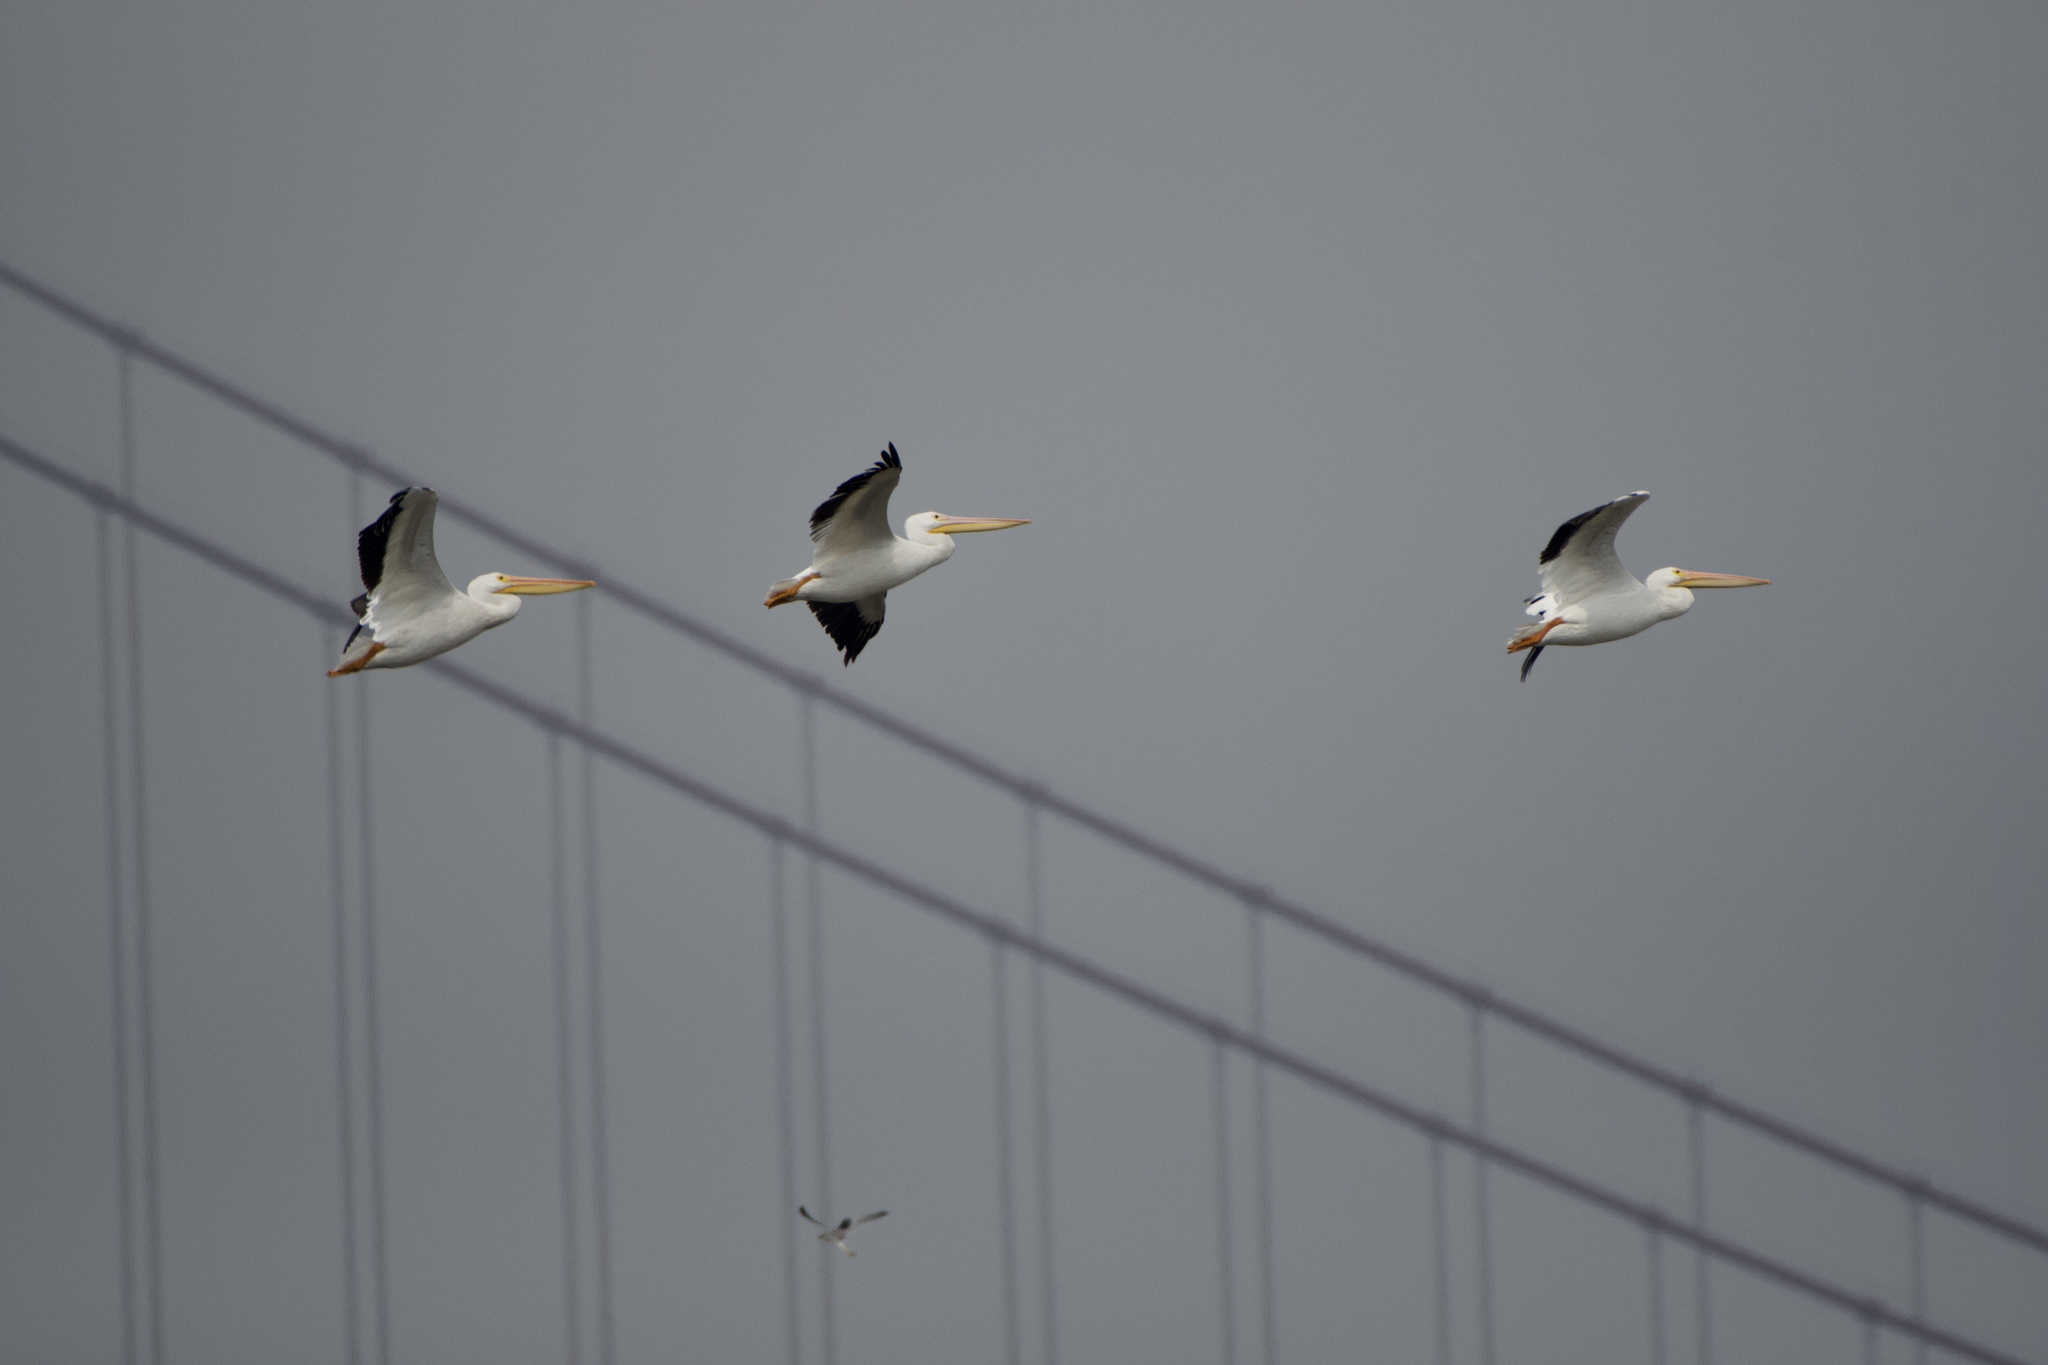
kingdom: Animalia
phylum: Chordata
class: Aves
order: Pelecaniformes
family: Pelecanidae
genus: Pelecanus
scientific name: Pelecanus erythrorhynchos
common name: American white pelican
